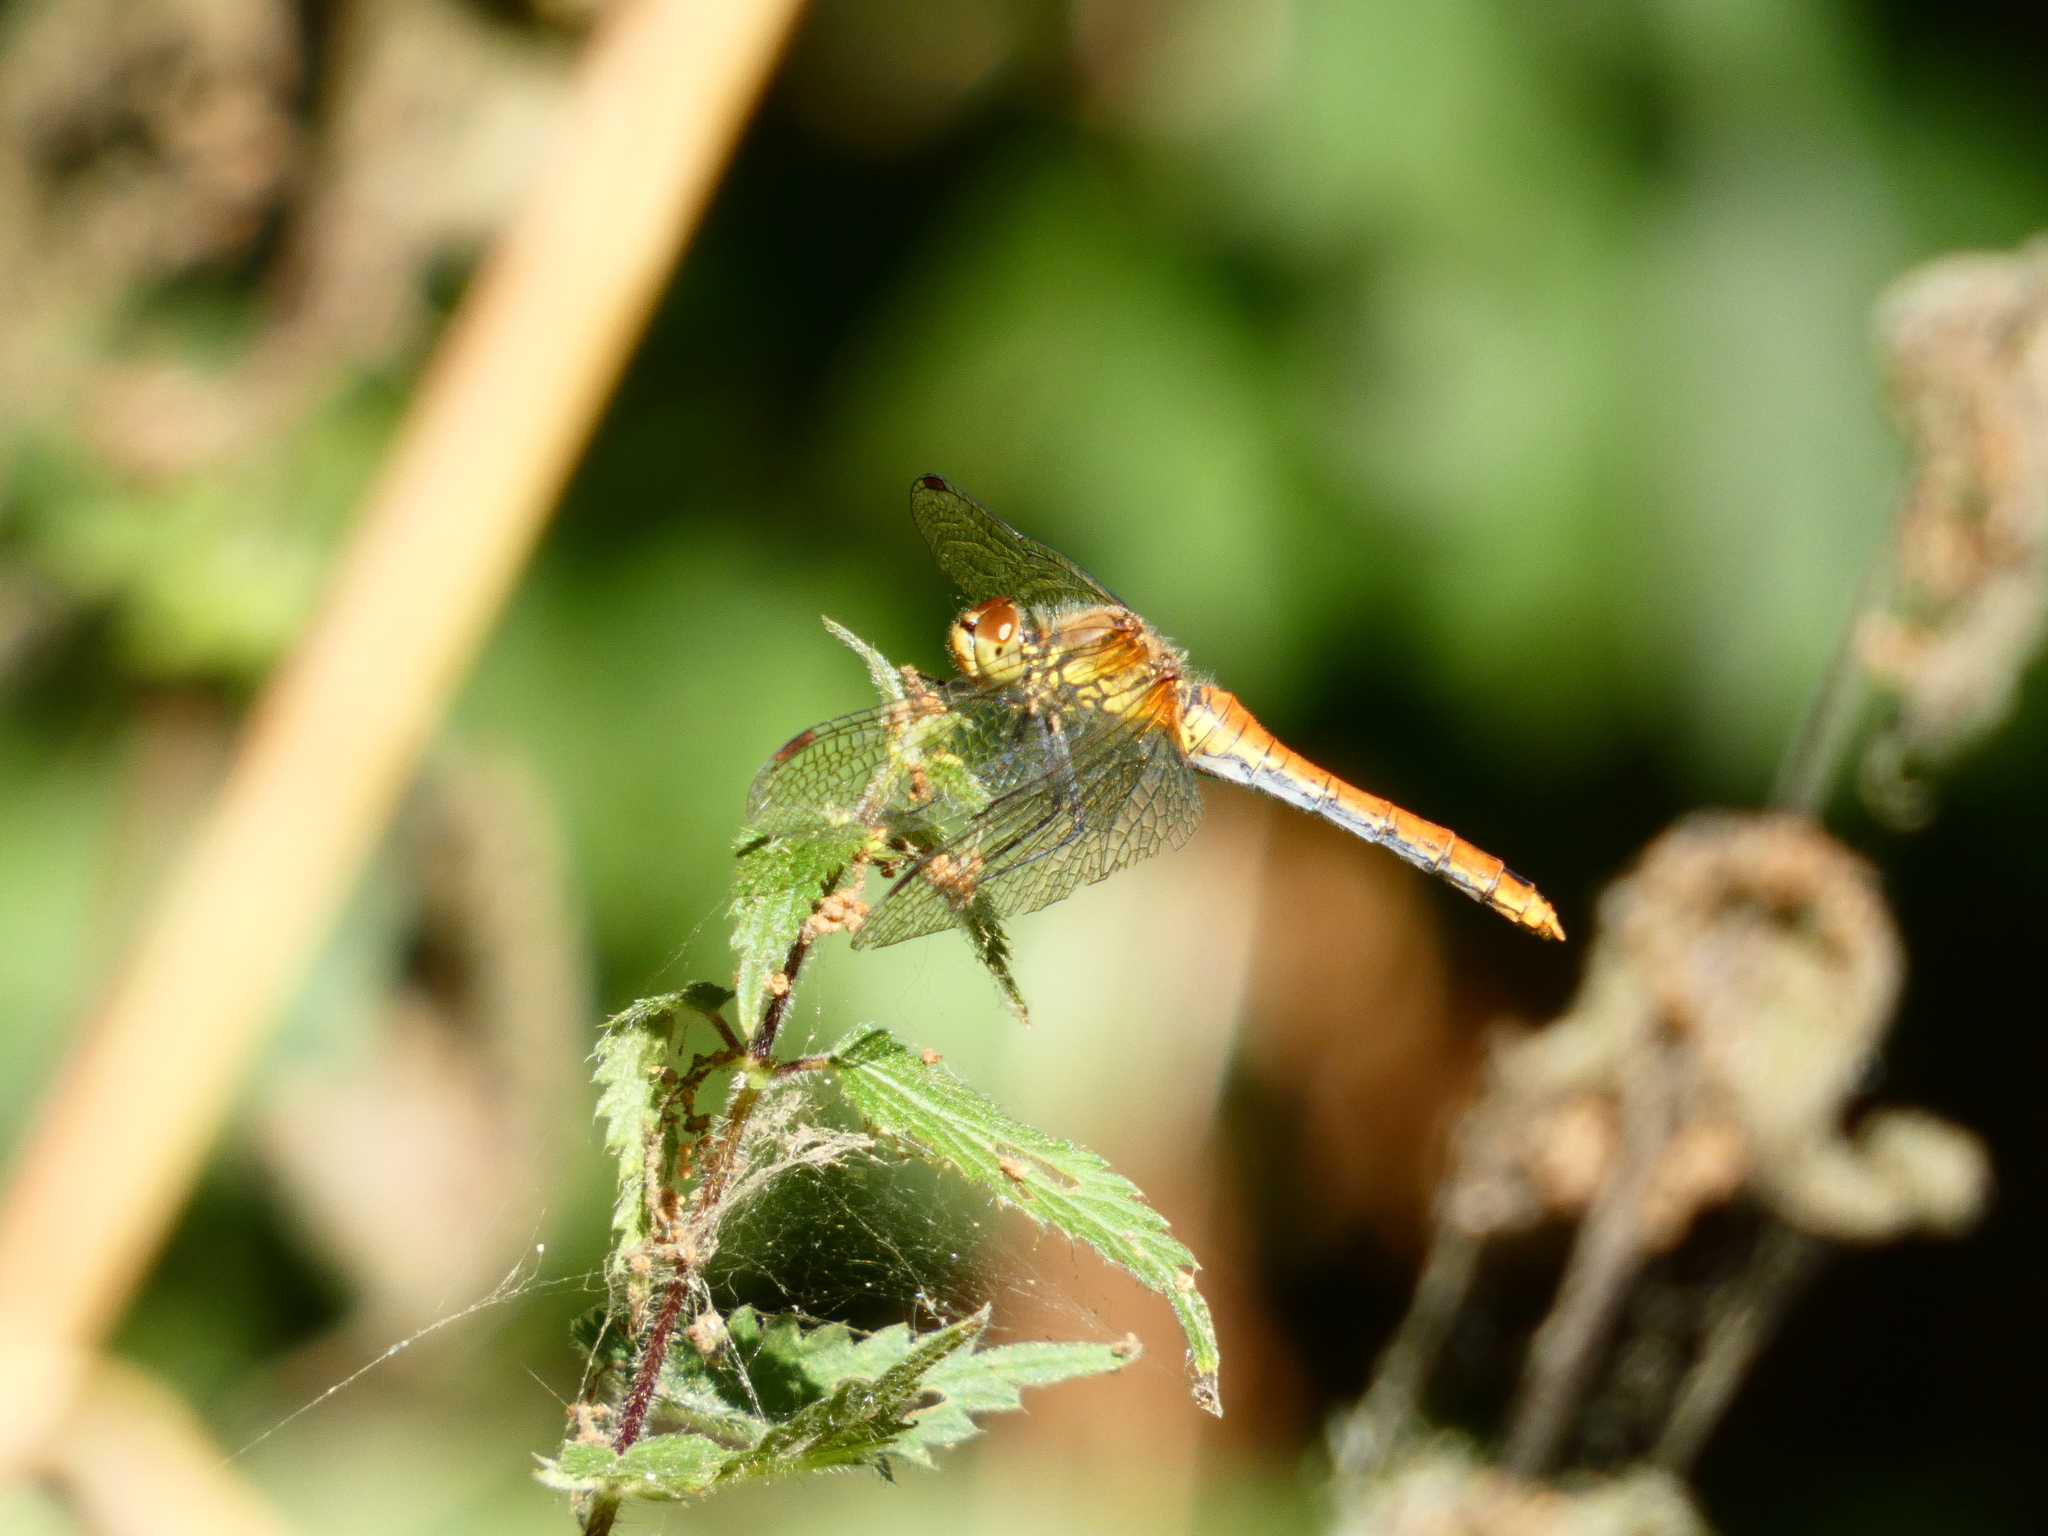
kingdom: Animalia
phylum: Arthropoda
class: Insecta
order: Odonata
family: Libellulidae
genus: Sympetrum
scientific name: Sympetrum striolatum
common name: Common darter
